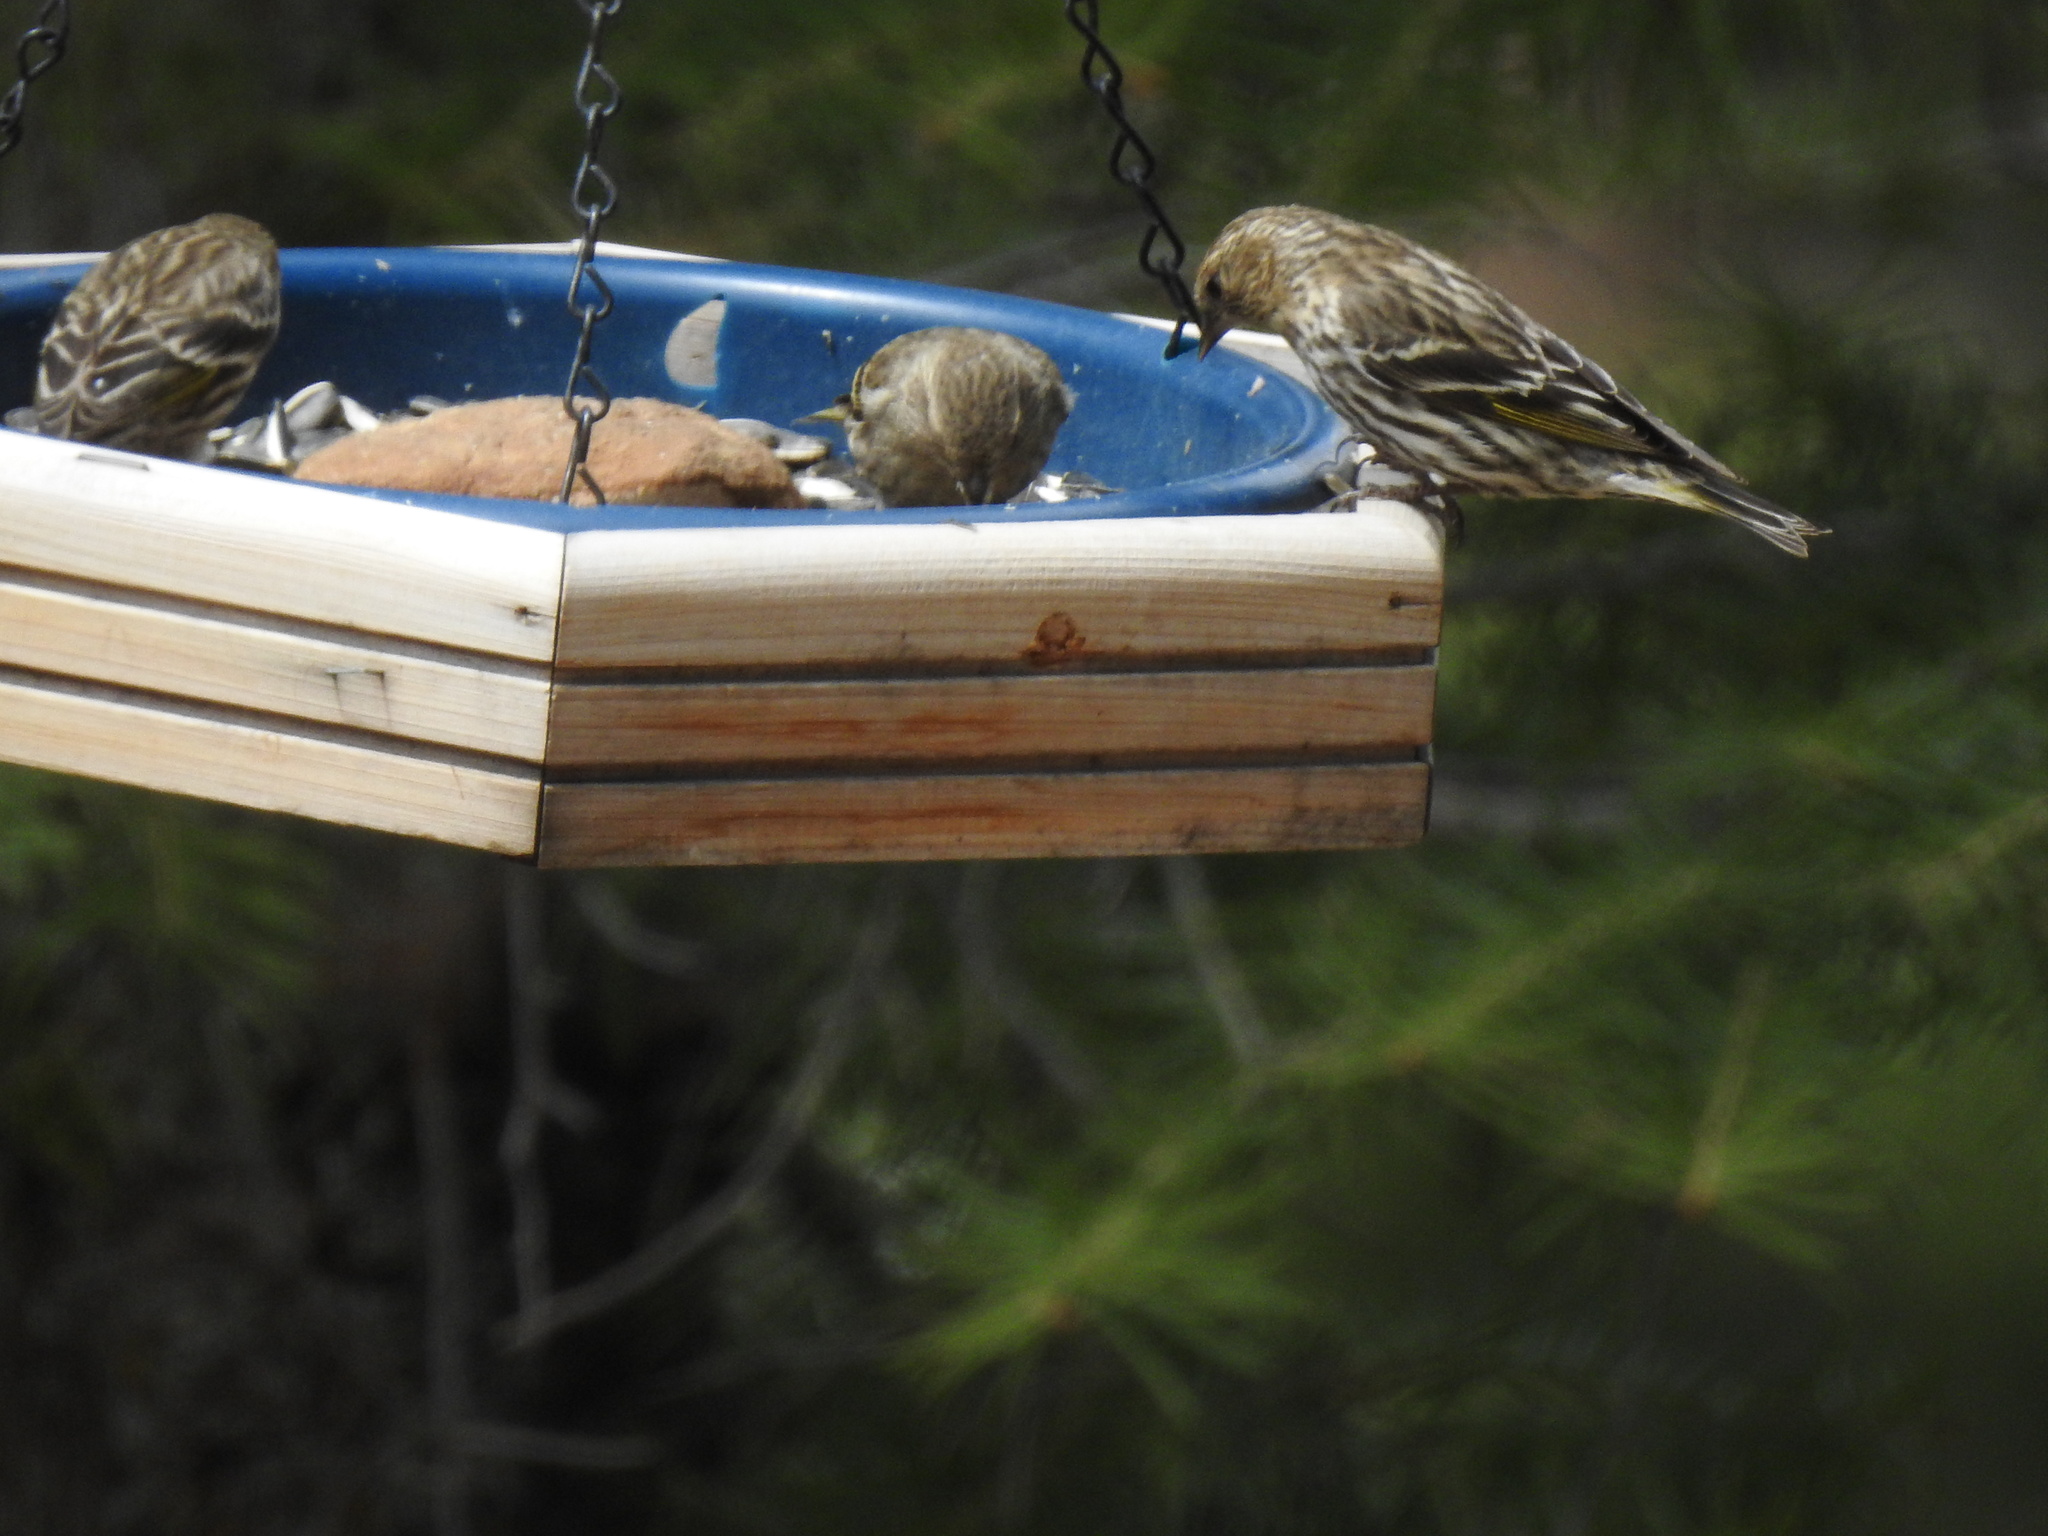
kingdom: Animalia
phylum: Chordata
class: Aves
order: Passeriformes
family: Fringillidae
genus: Spinus
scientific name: Spinus pinus
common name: Pine siskin
